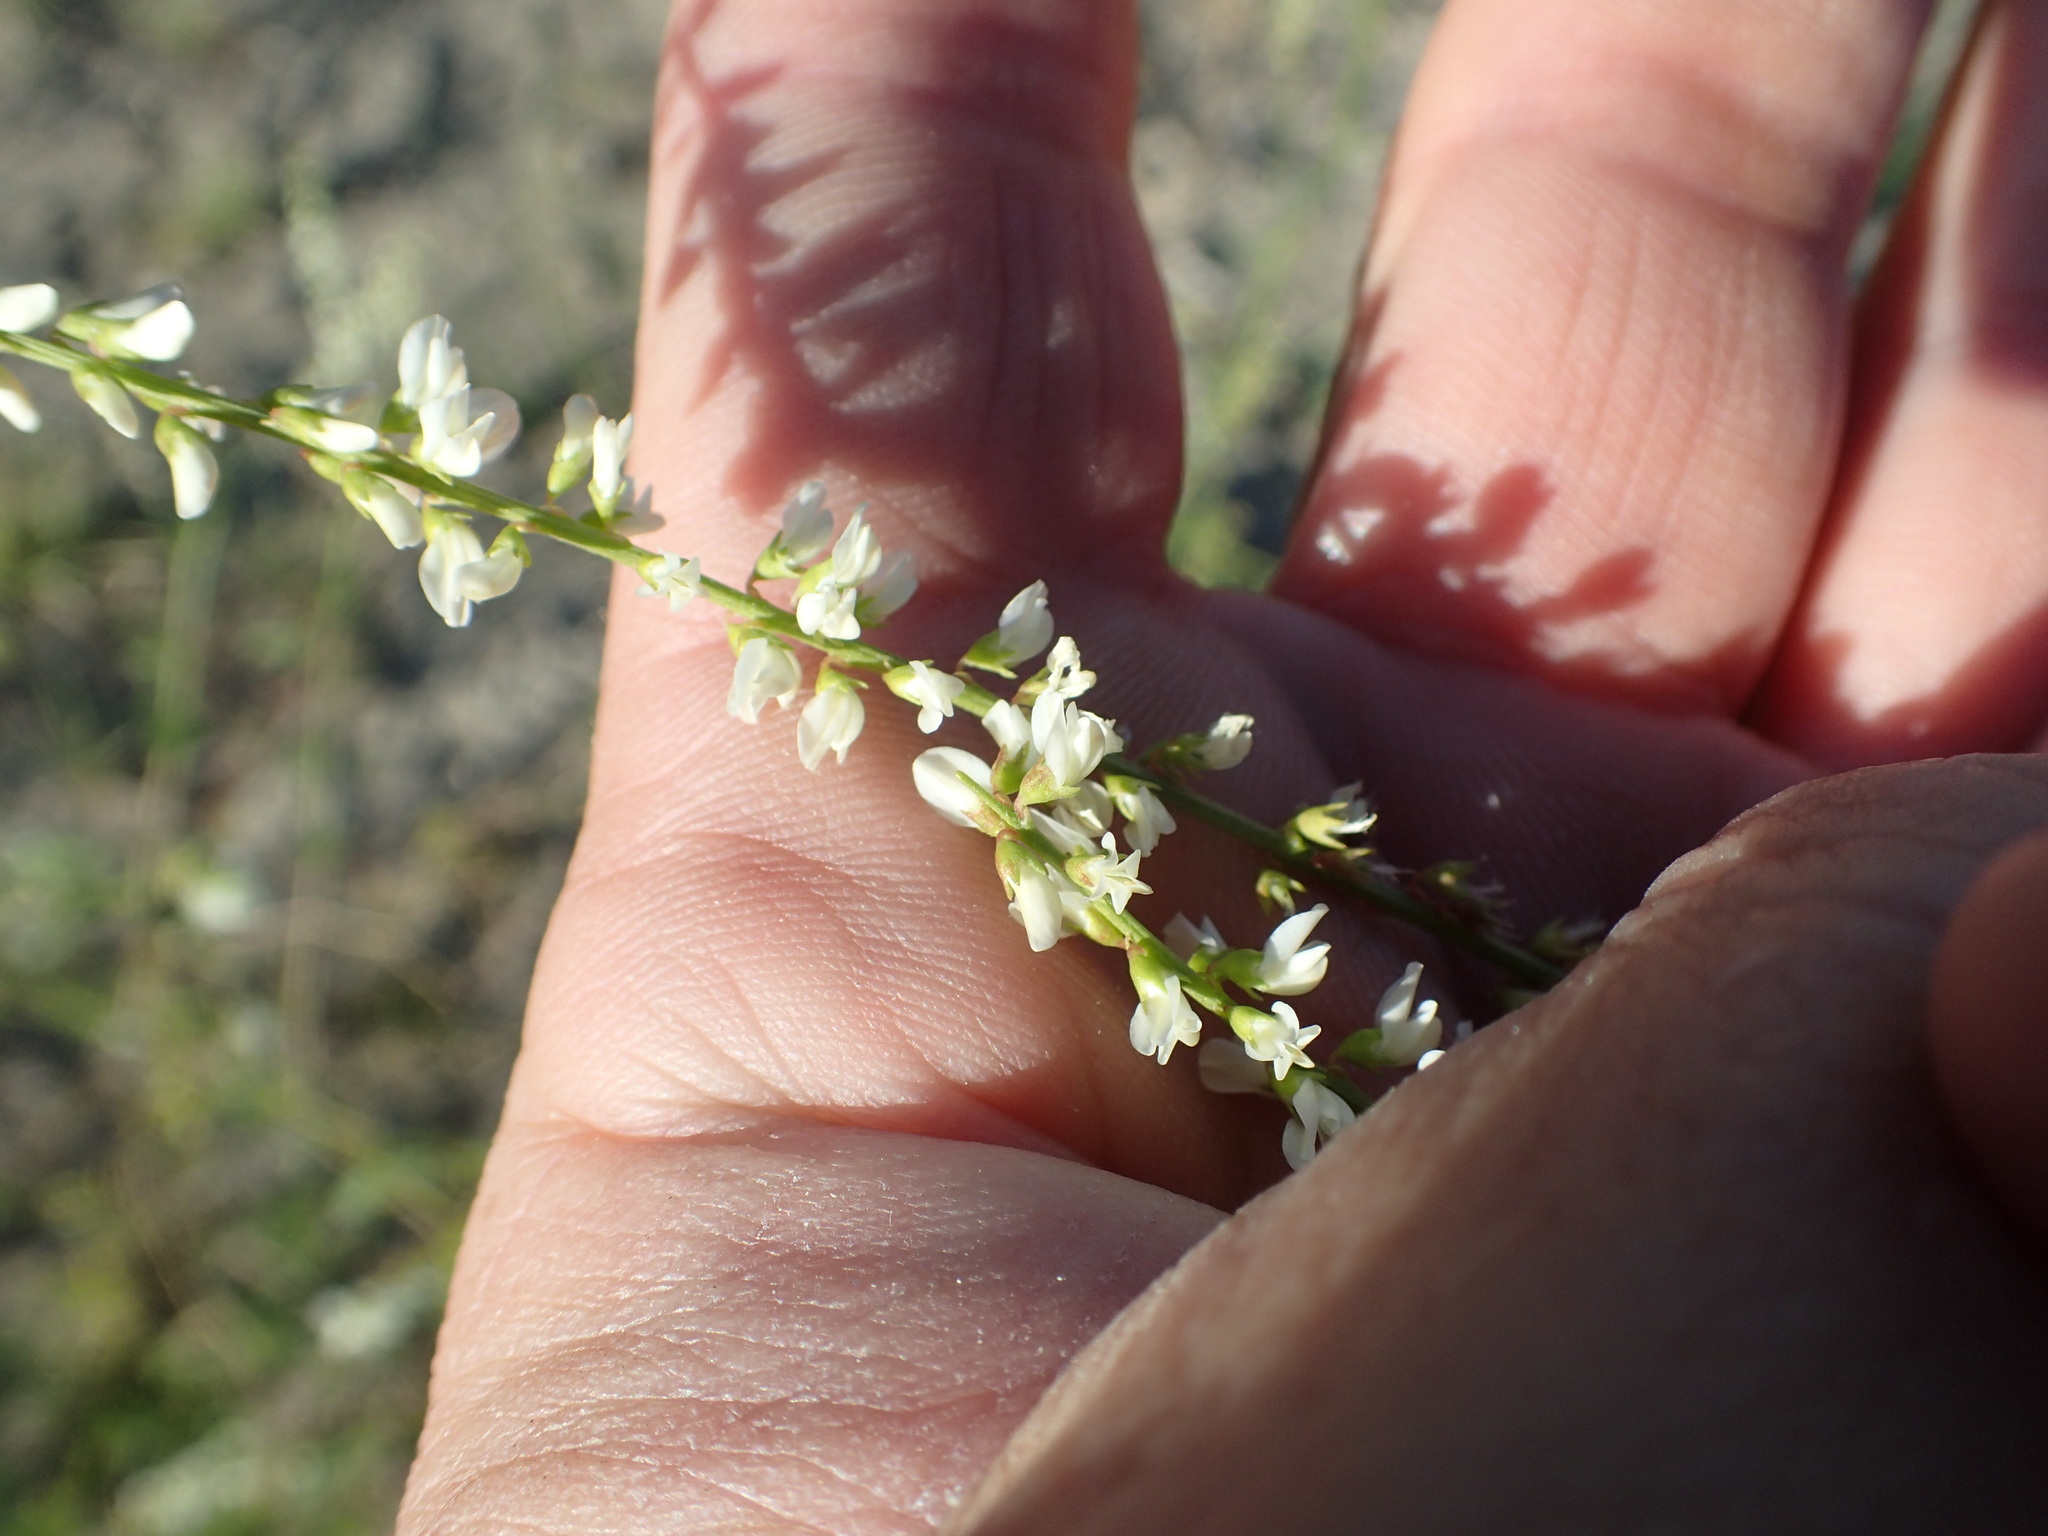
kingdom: Plantae
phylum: Tracheophyta
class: Magnoliopsida
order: Fabales
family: Fabaceae
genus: Melilotus
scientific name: Melilotus albus
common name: White melilot
